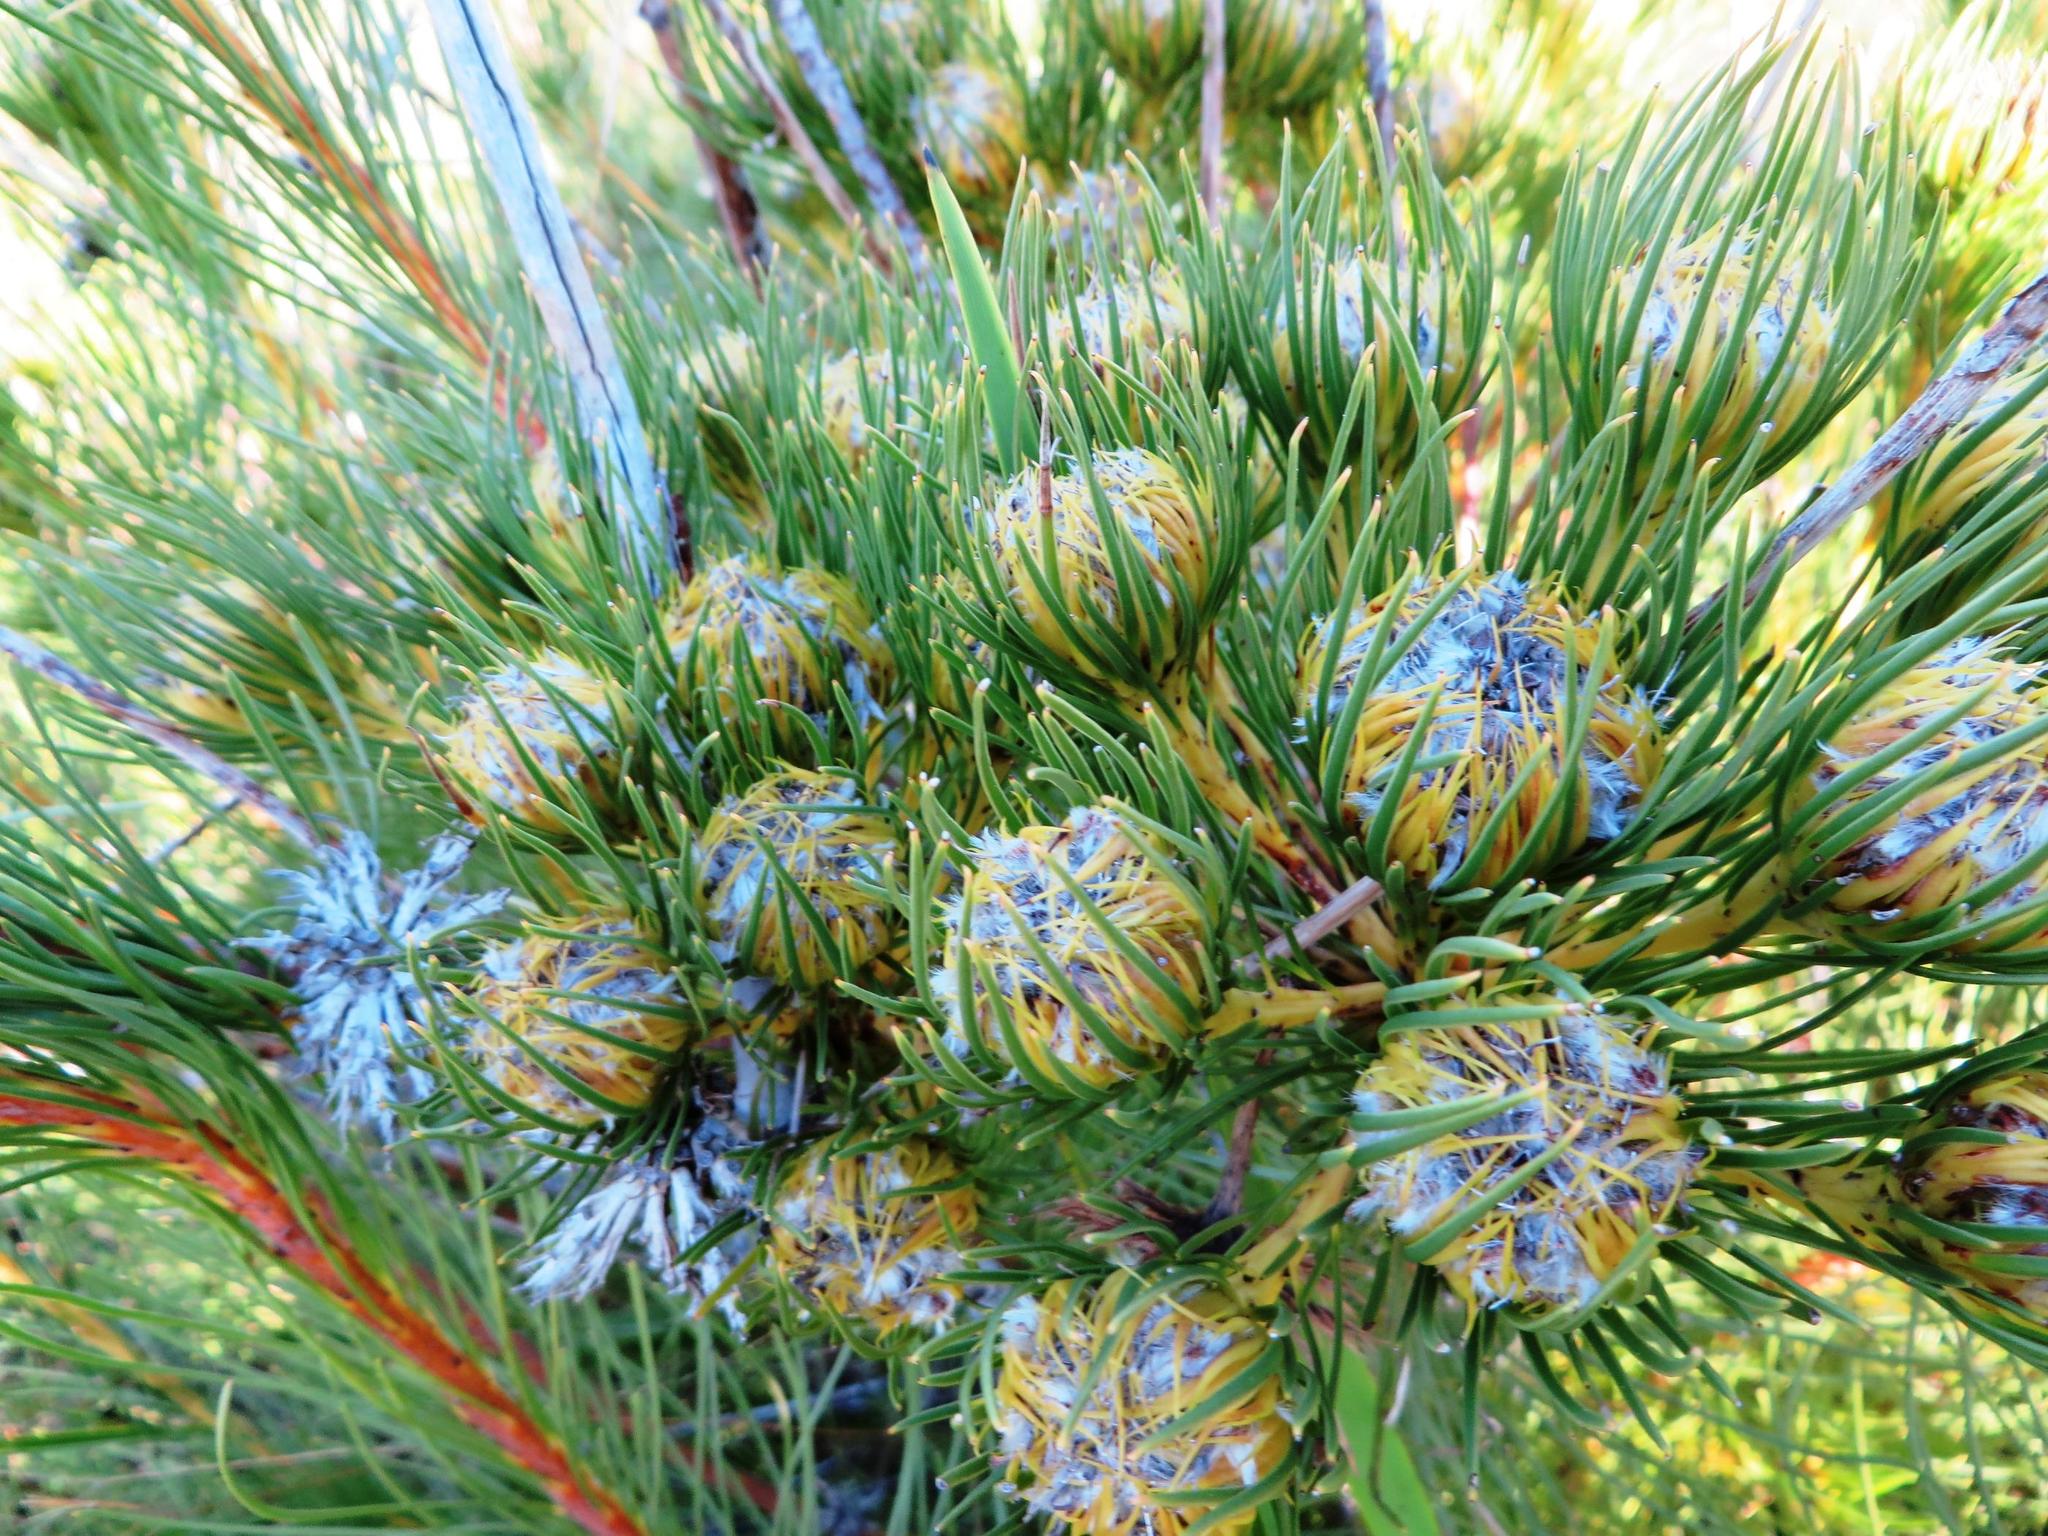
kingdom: Plantae
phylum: Tracheophyta
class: Magnoliopsida
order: Proteales
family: Proteaceae
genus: Aulax
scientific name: Aulax pallasia
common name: Needle-leaf featherbush
